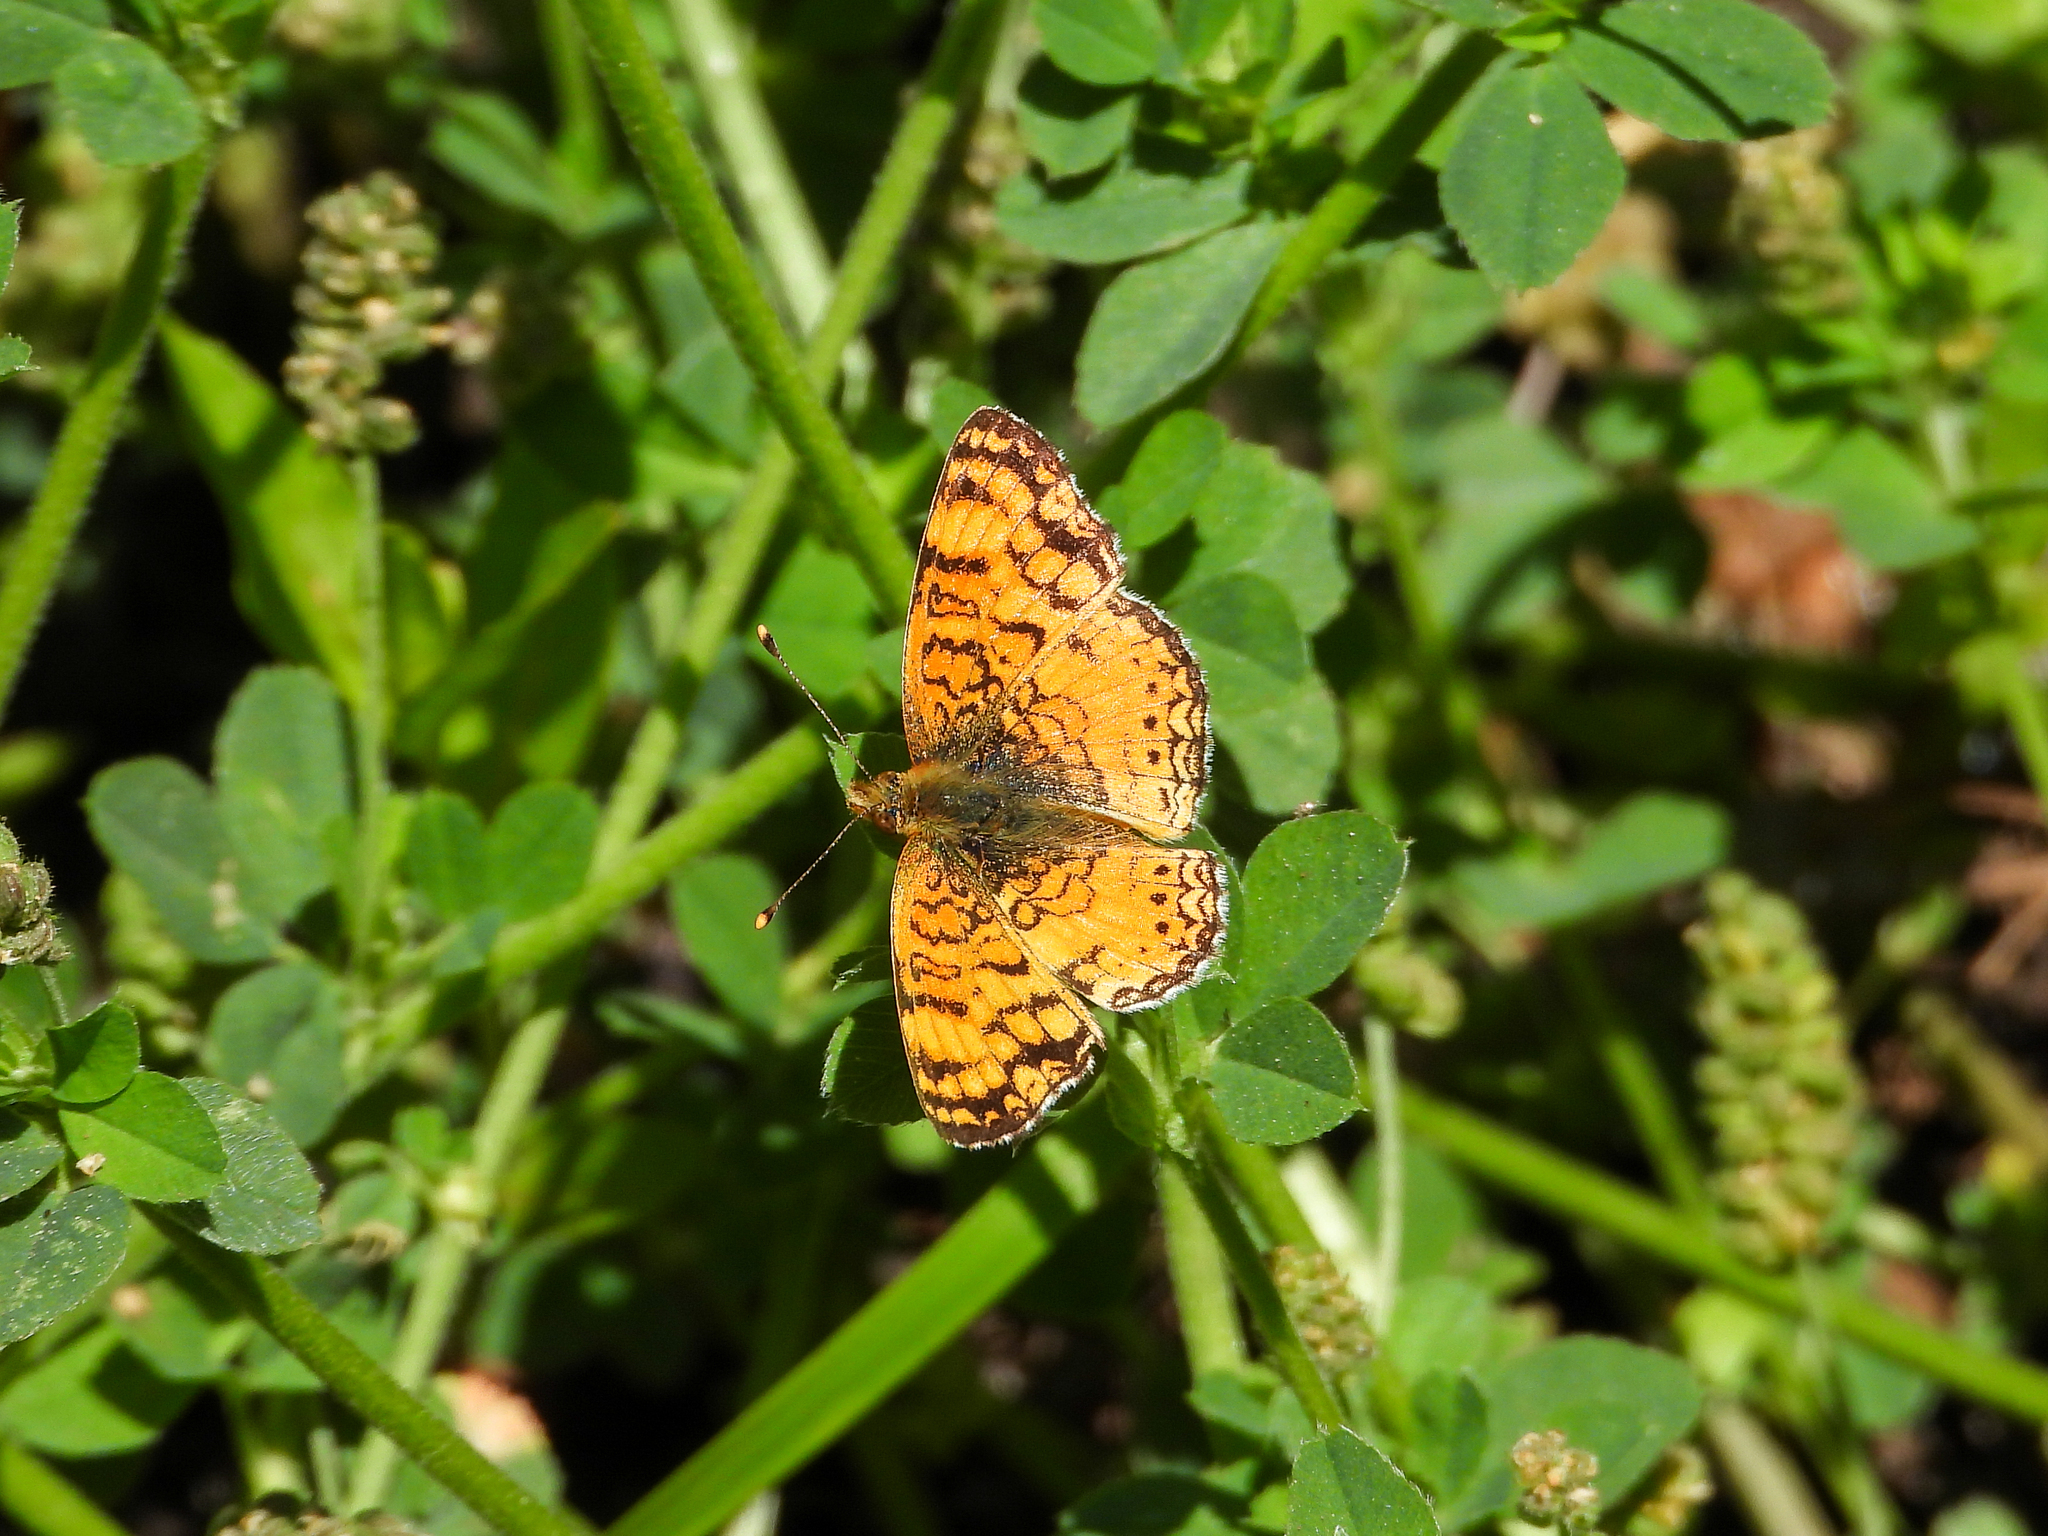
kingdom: Animalia
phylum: Arthropoda
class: Insecta
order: Lepidoptera
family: Nymphalidae
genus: Eresia
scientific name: Eresia aveyrona
